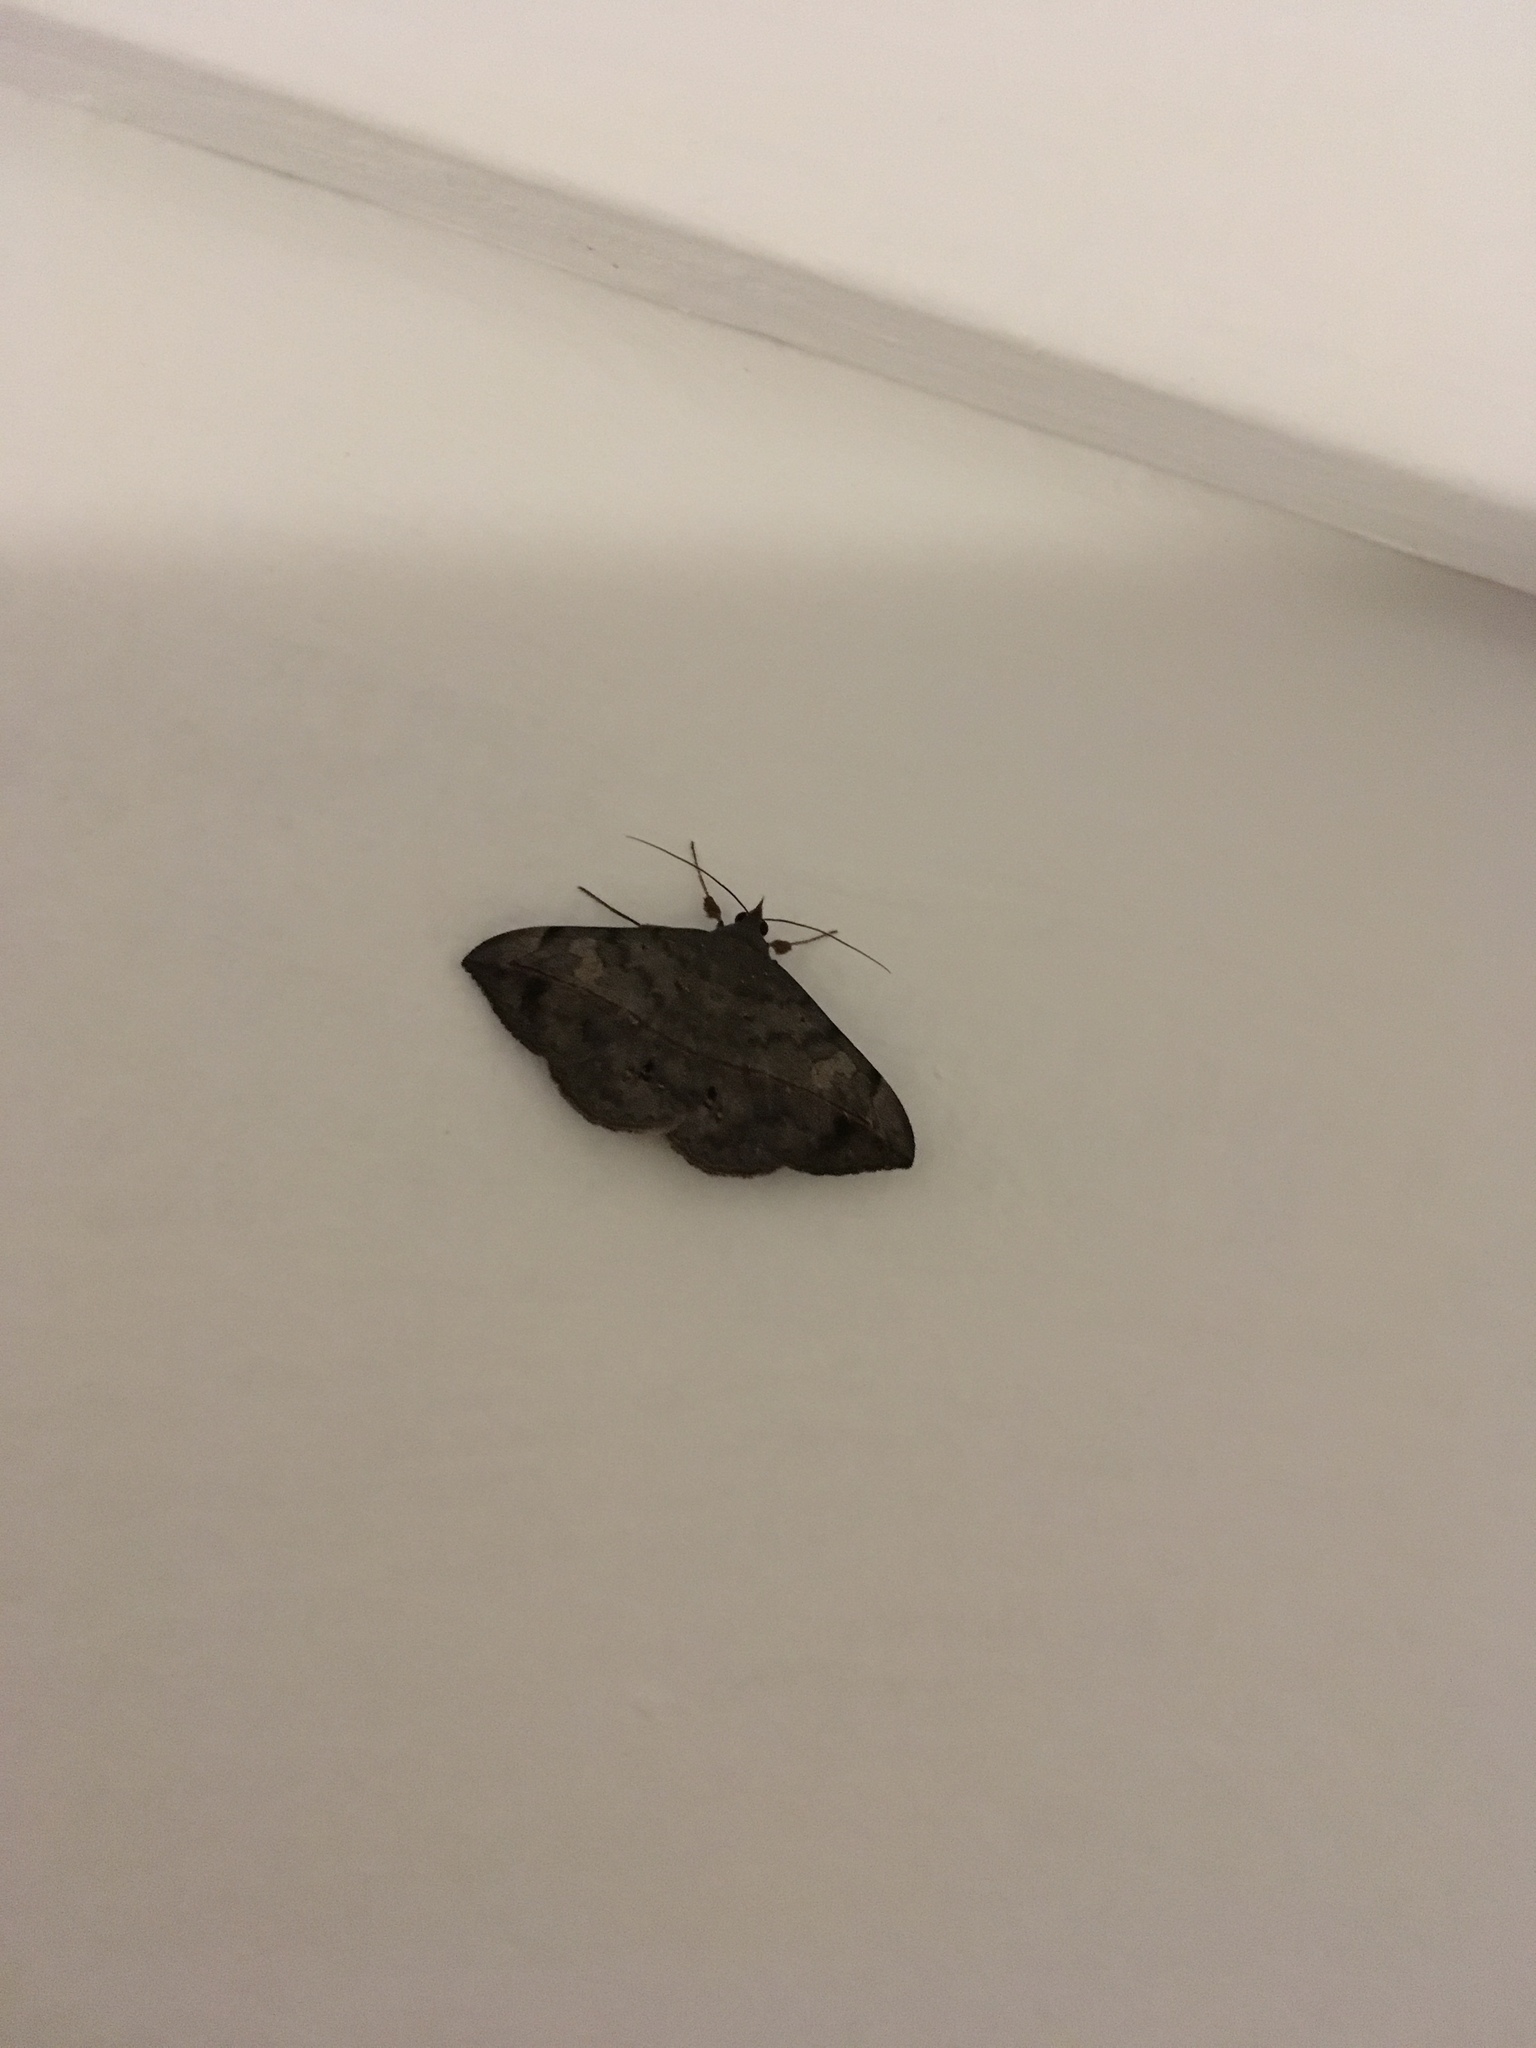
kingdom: Animalia
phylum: Arthropoda
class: Insecta
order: Lepidoptera
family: Erebidae
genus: Anticarsia
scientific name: Anticarsia gemmatalis
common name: Cutworm moth
